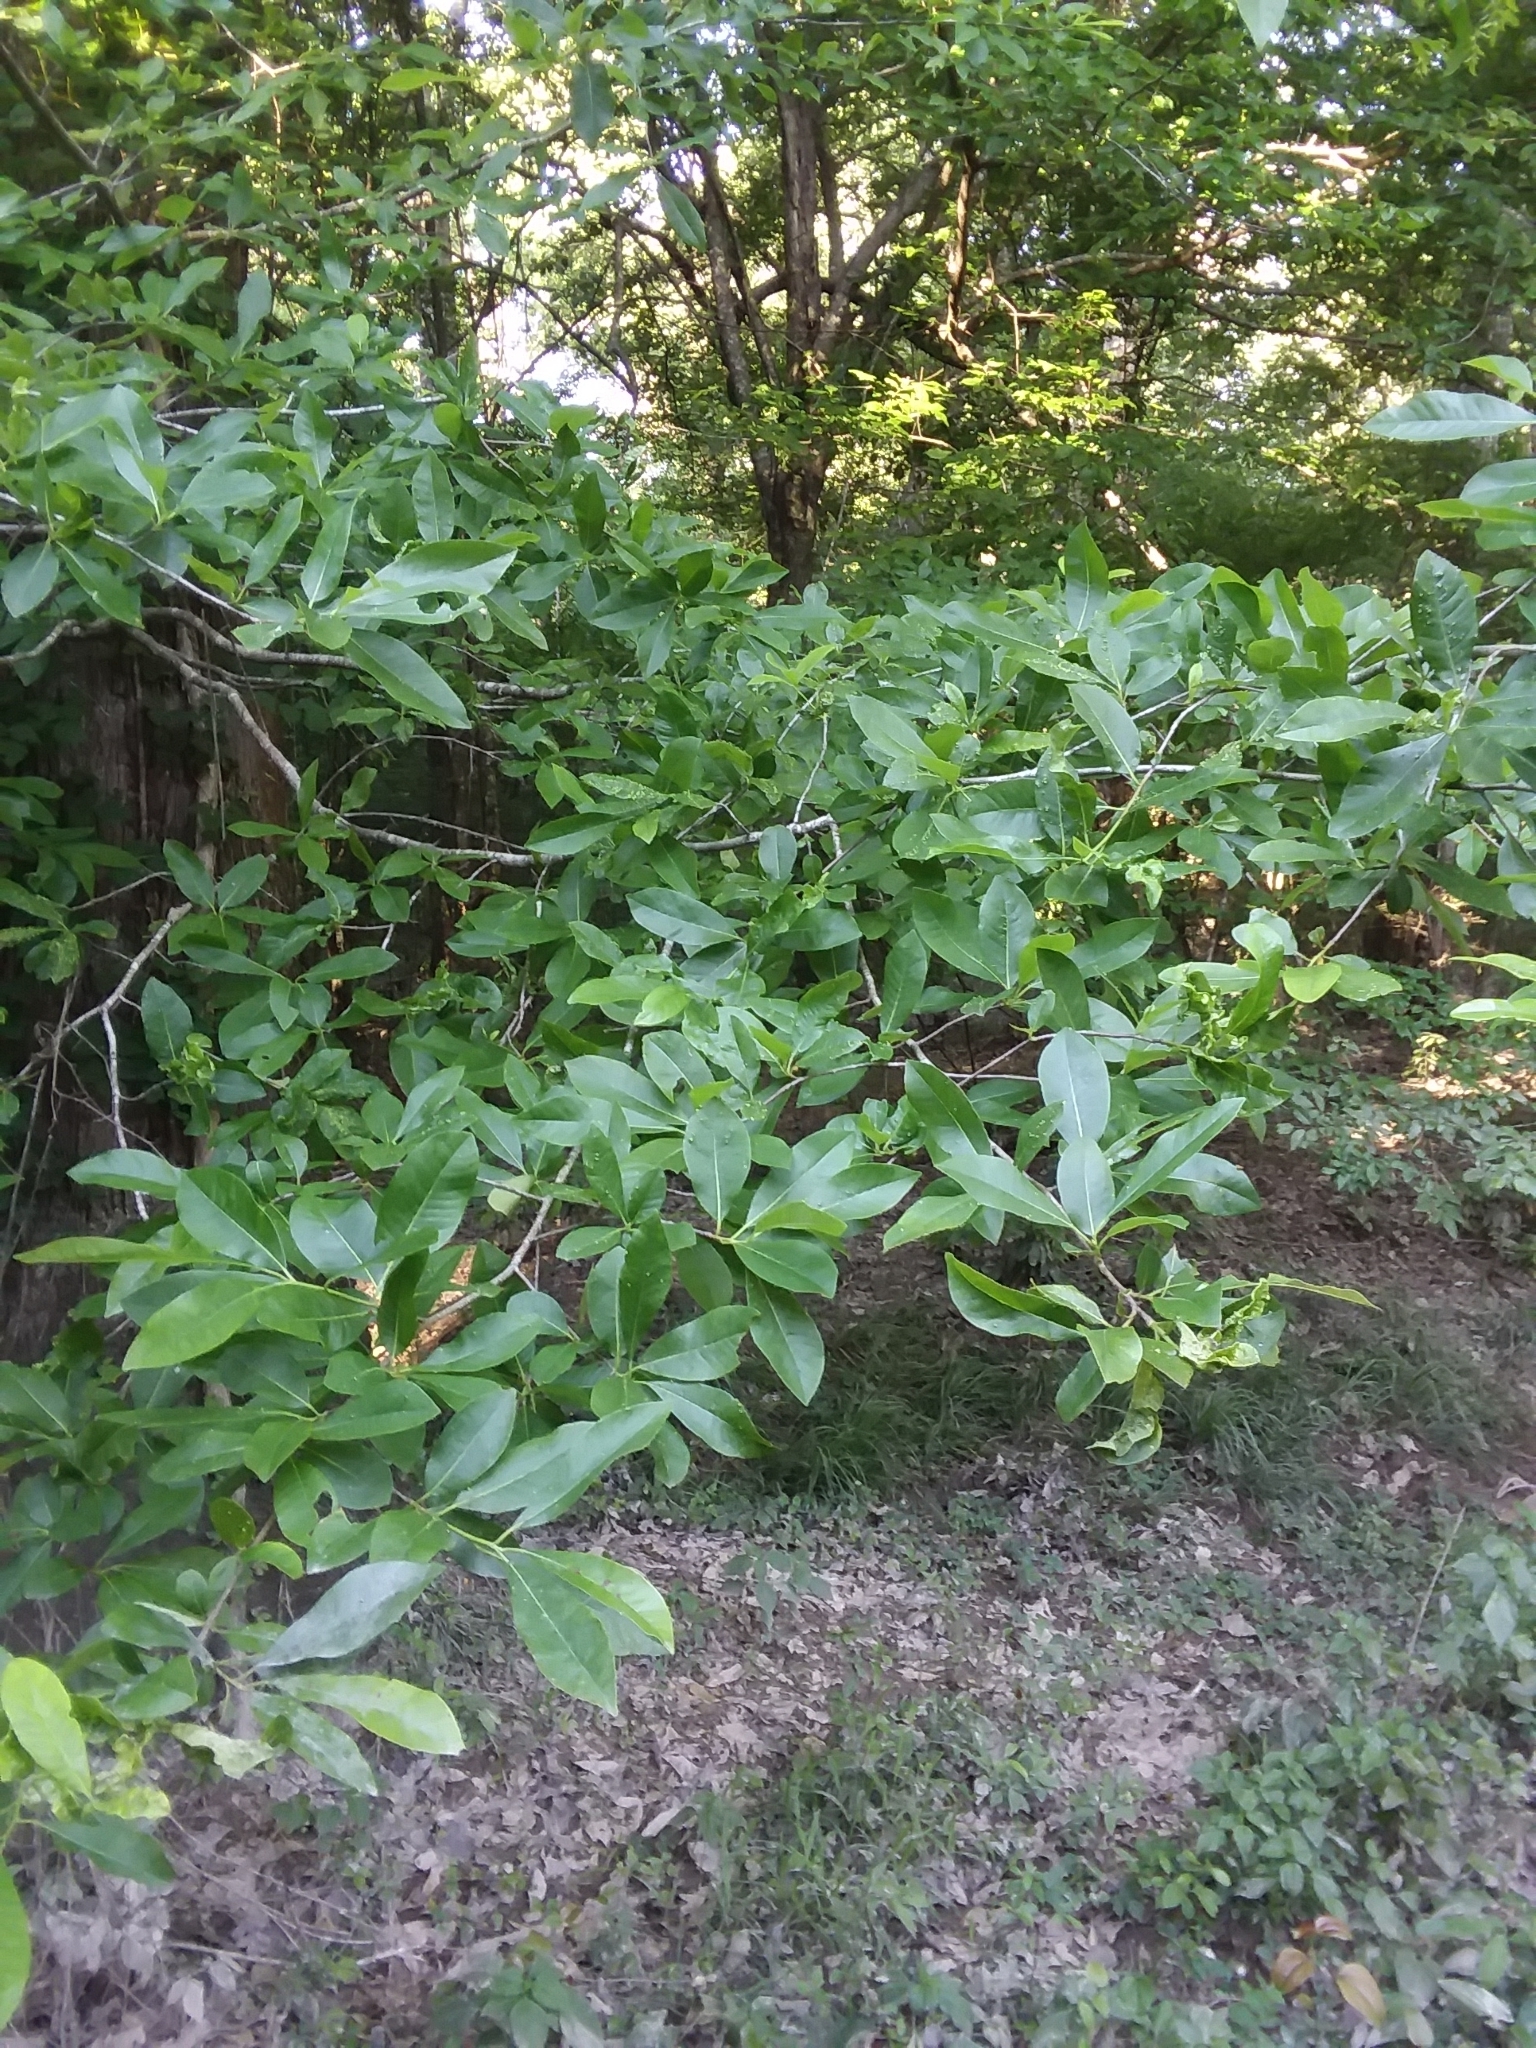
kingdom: Plantae
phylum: Tracheophyta
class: Magnoliopsida
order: Cornales
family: Nyssaceae
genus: Nyssa
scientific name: Nyssa biflora
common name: Swamp blackgum
